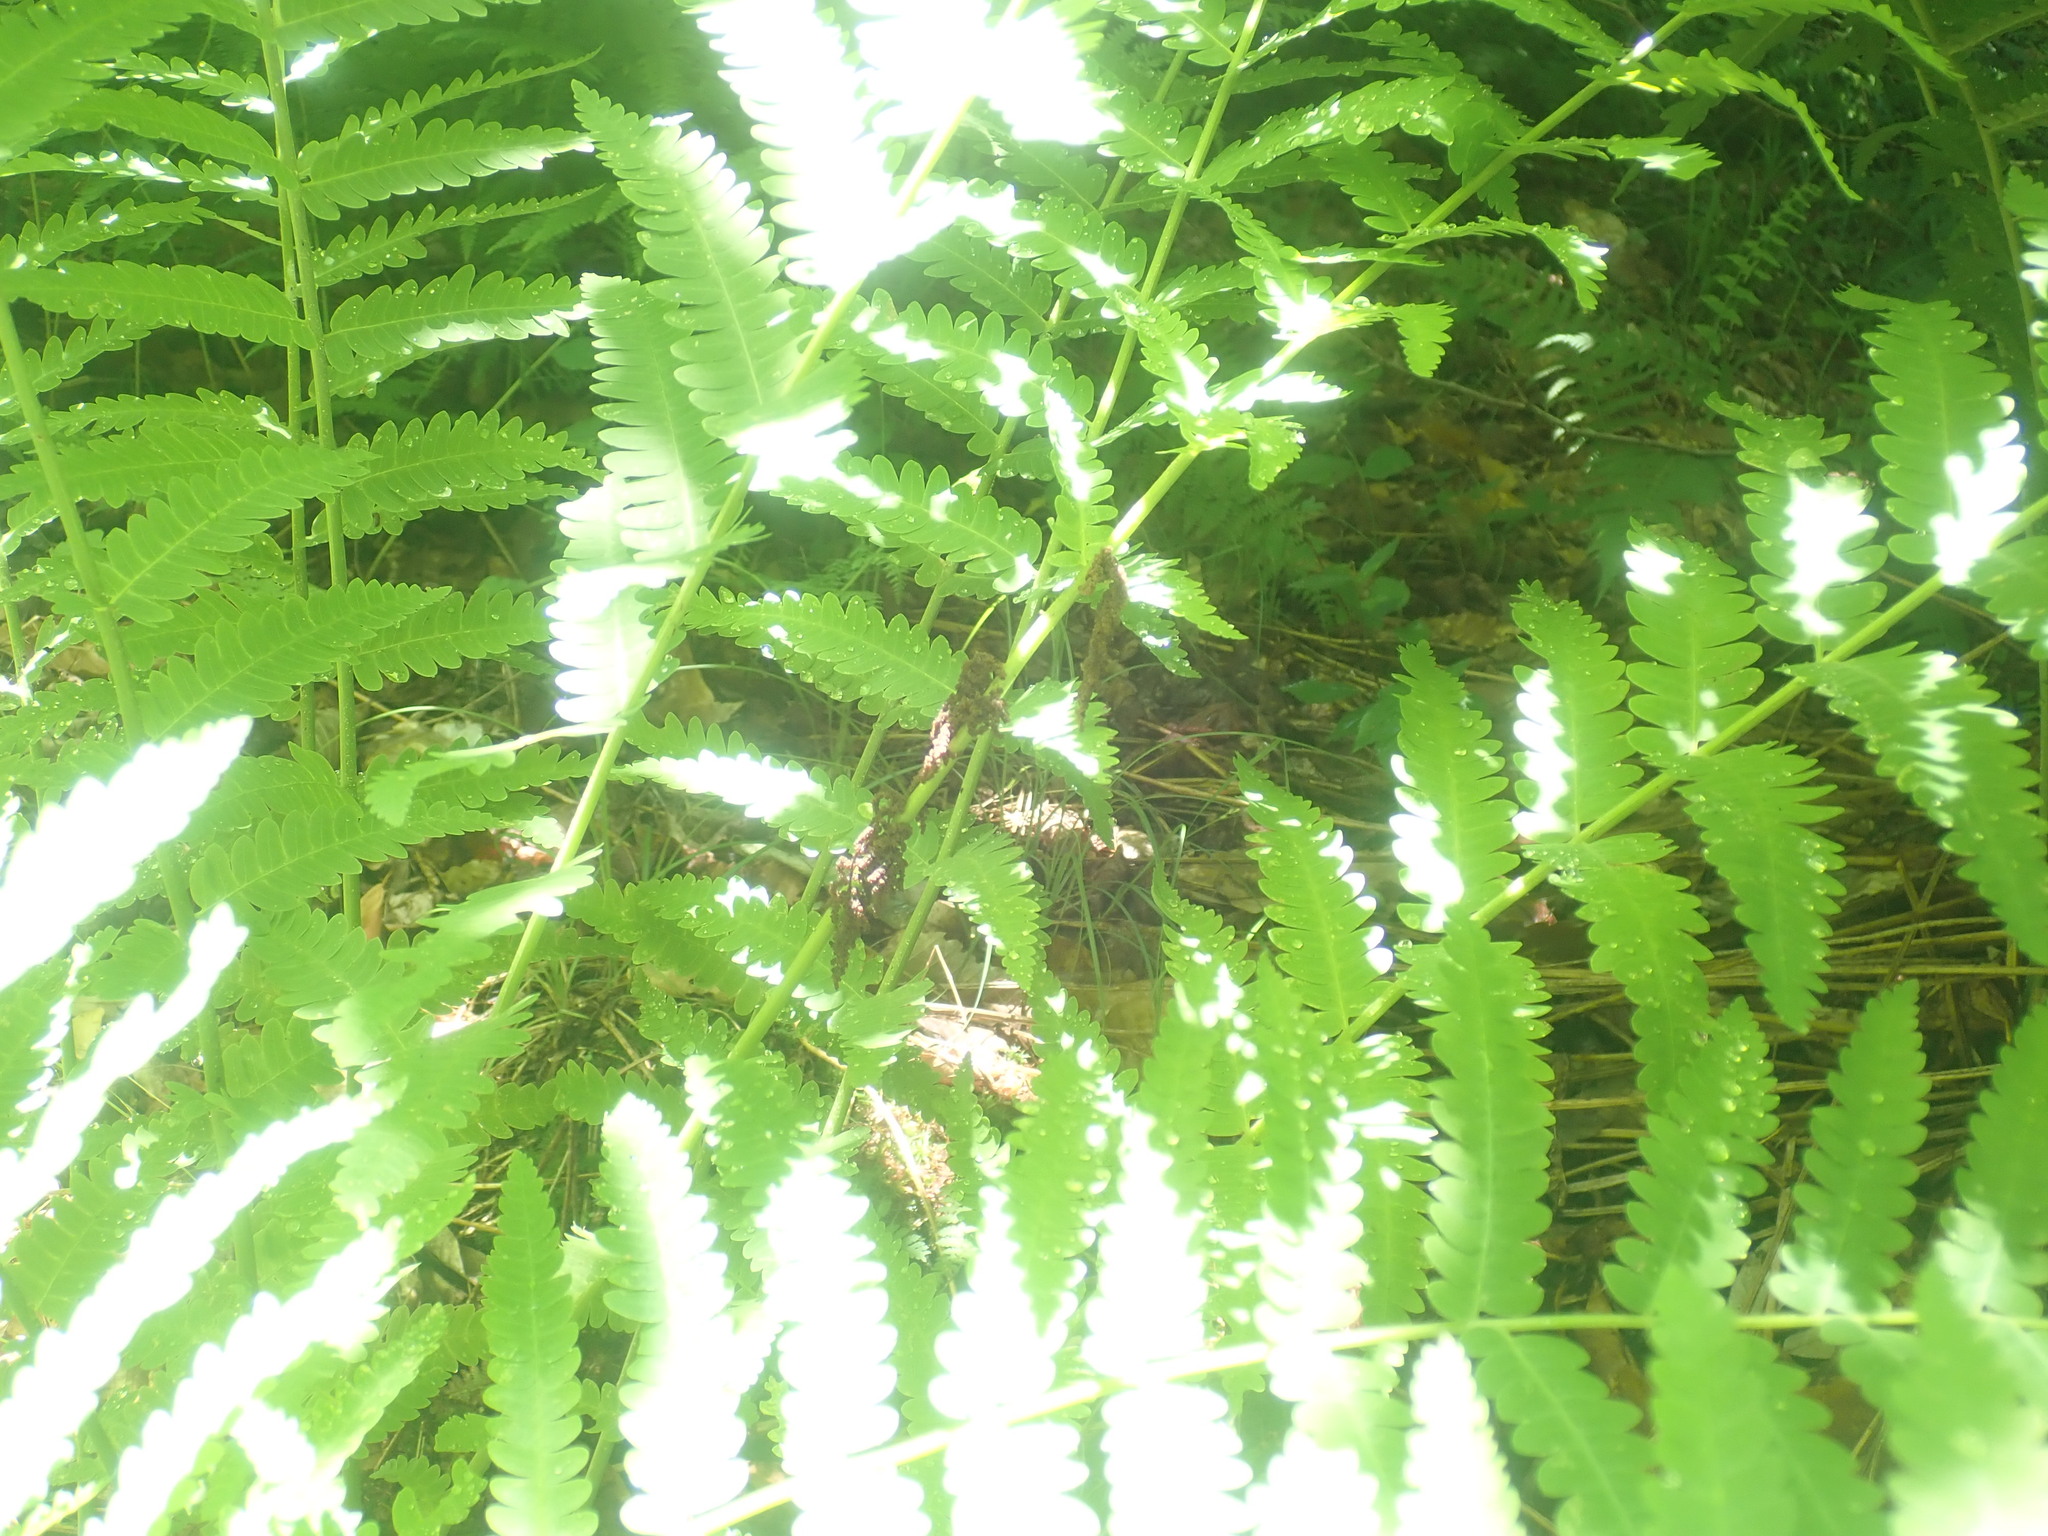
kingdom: Plantae
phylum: Tracheophyta
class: Polypodiopsida
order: Osmundales
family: Osmundaceae
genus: Claytosmunda
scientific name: Claytosmunda claytoniana
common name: Clayton's fern
